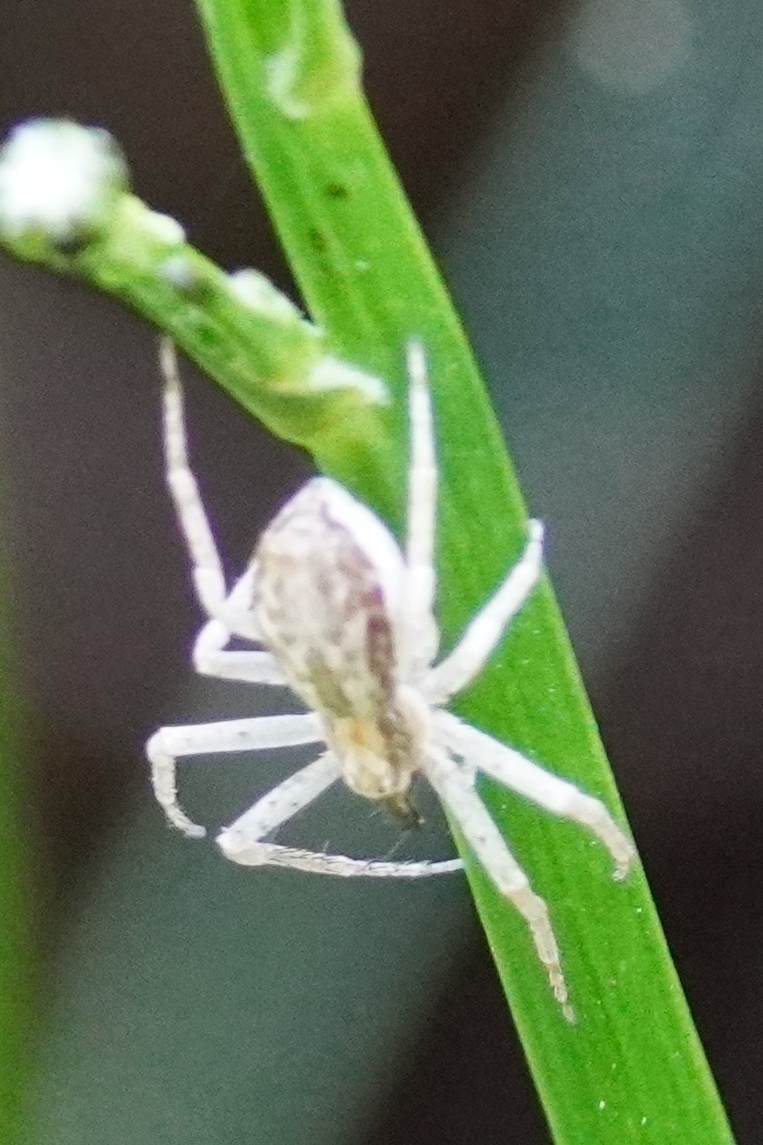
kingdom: Animalia
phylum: Arthropoda
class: Arachnida
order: Araneae
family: Philodromidae
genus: Philodromus
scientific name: Philodromus dispar
